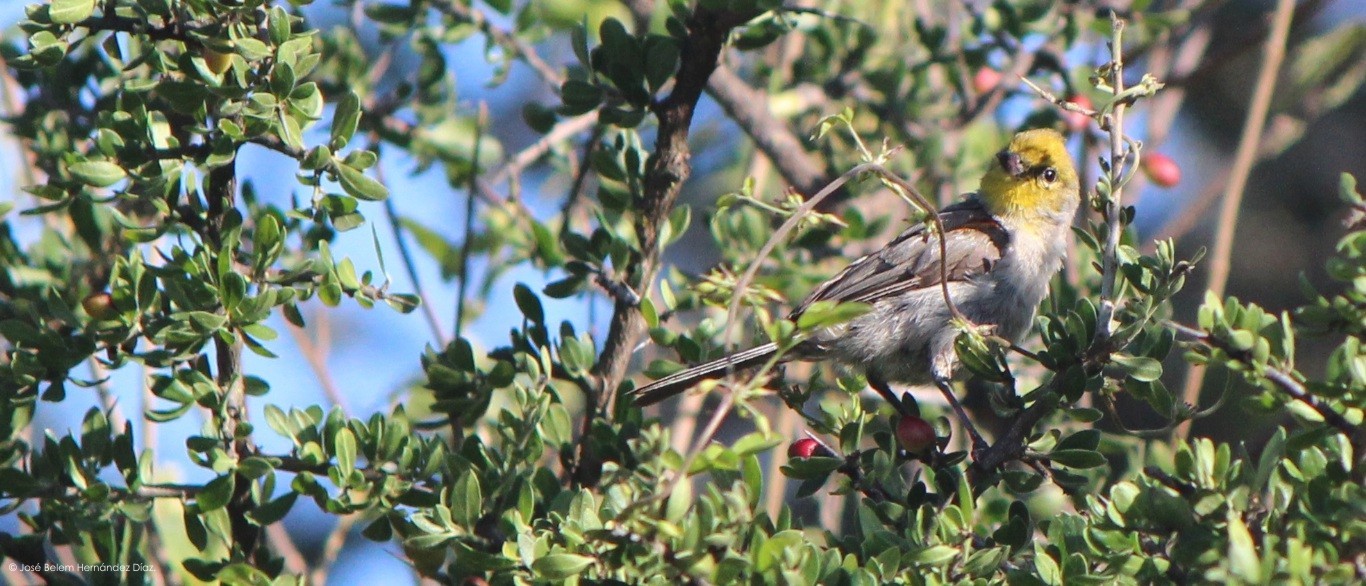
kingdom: Animalia
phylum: Chordata
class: Aves
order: Passeriformes
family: Remizidae
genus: Auriparus
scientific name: Auriparus flaviceps
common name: Verdin
